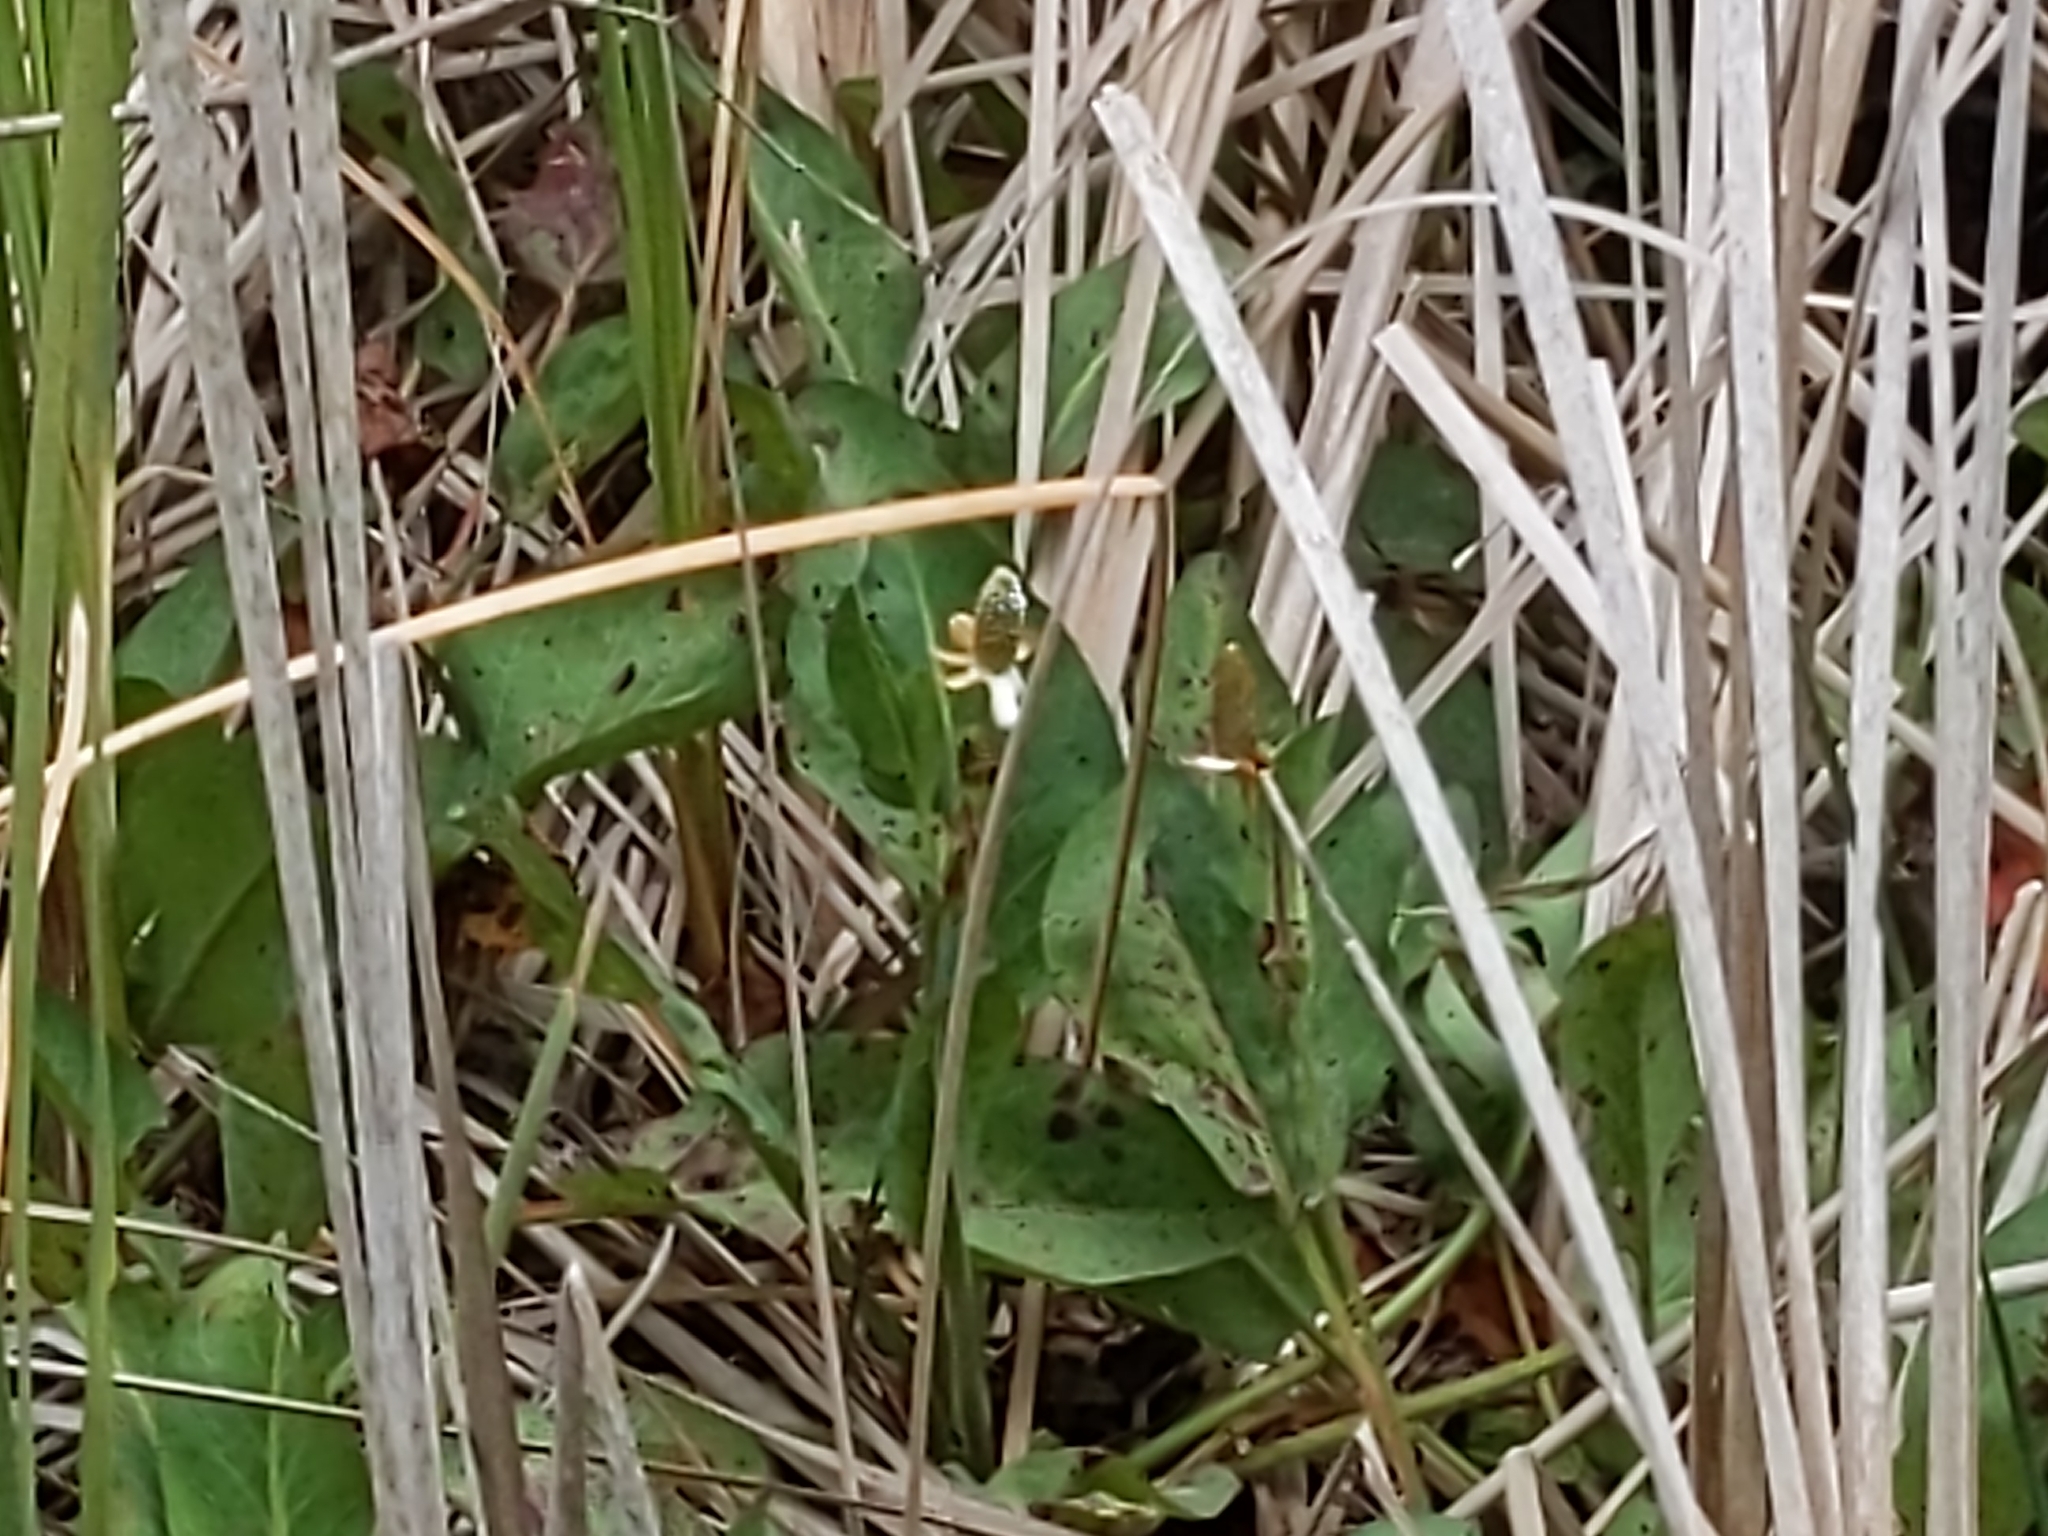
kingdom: Plantae
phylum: Tracheophyta
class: Magnoliopsida
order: Piperales
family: Saururaceae
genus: Anemopsis
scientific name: Anemopsis californica
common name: Apache-beads
